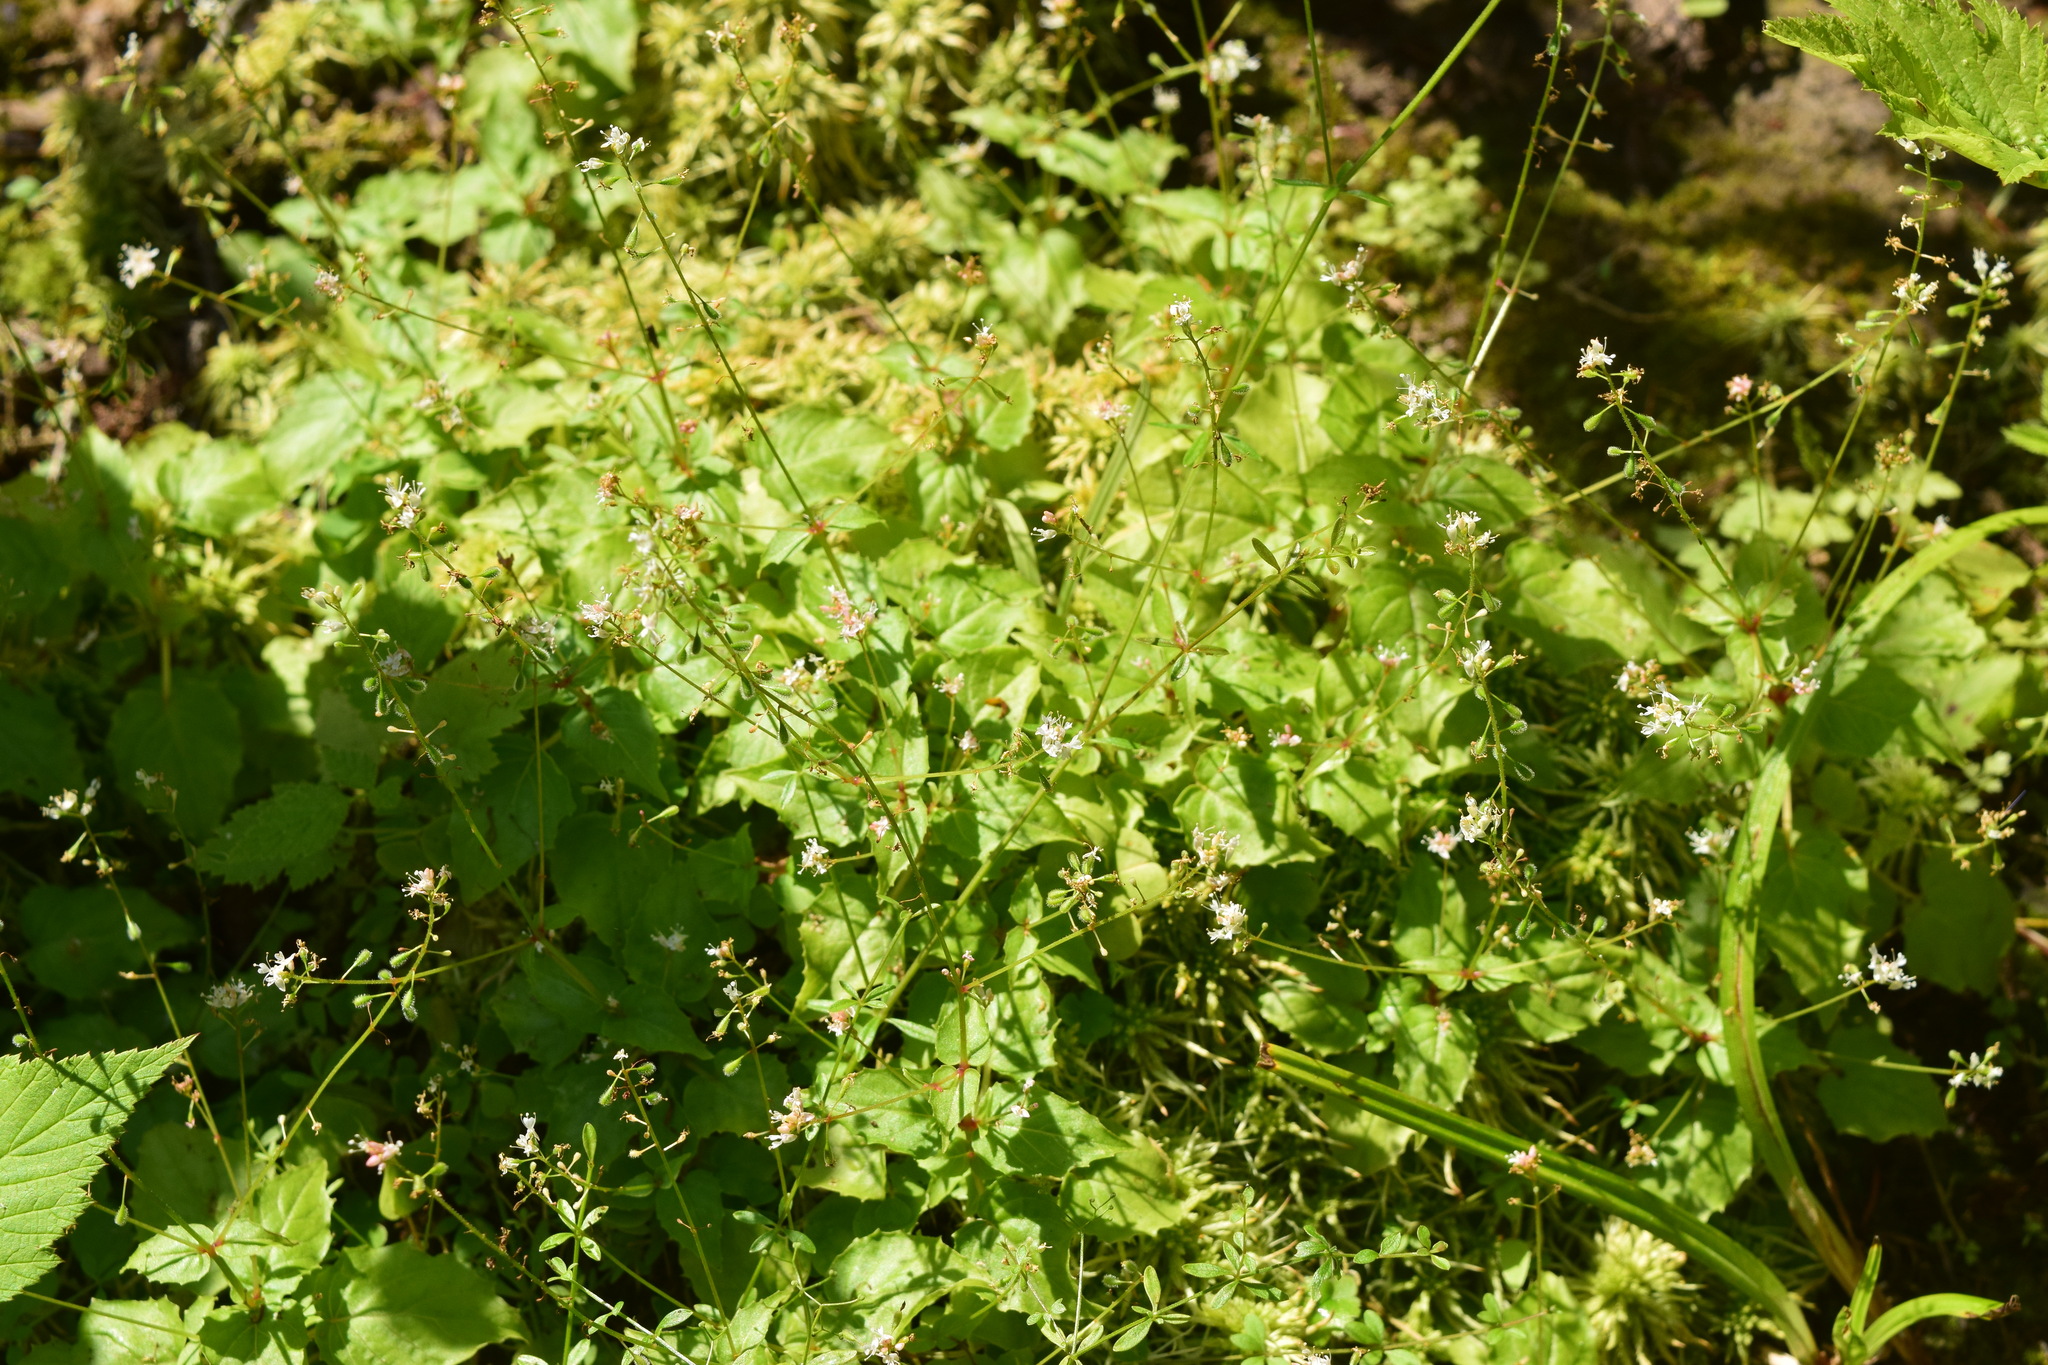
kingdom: Plantae
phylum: Tracheophyta
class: Magnoliopsida
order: Myrtales
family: Onagraceae
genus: Circaea
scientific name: Circaea alpina
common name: Alpine enchanter's-nightshade
